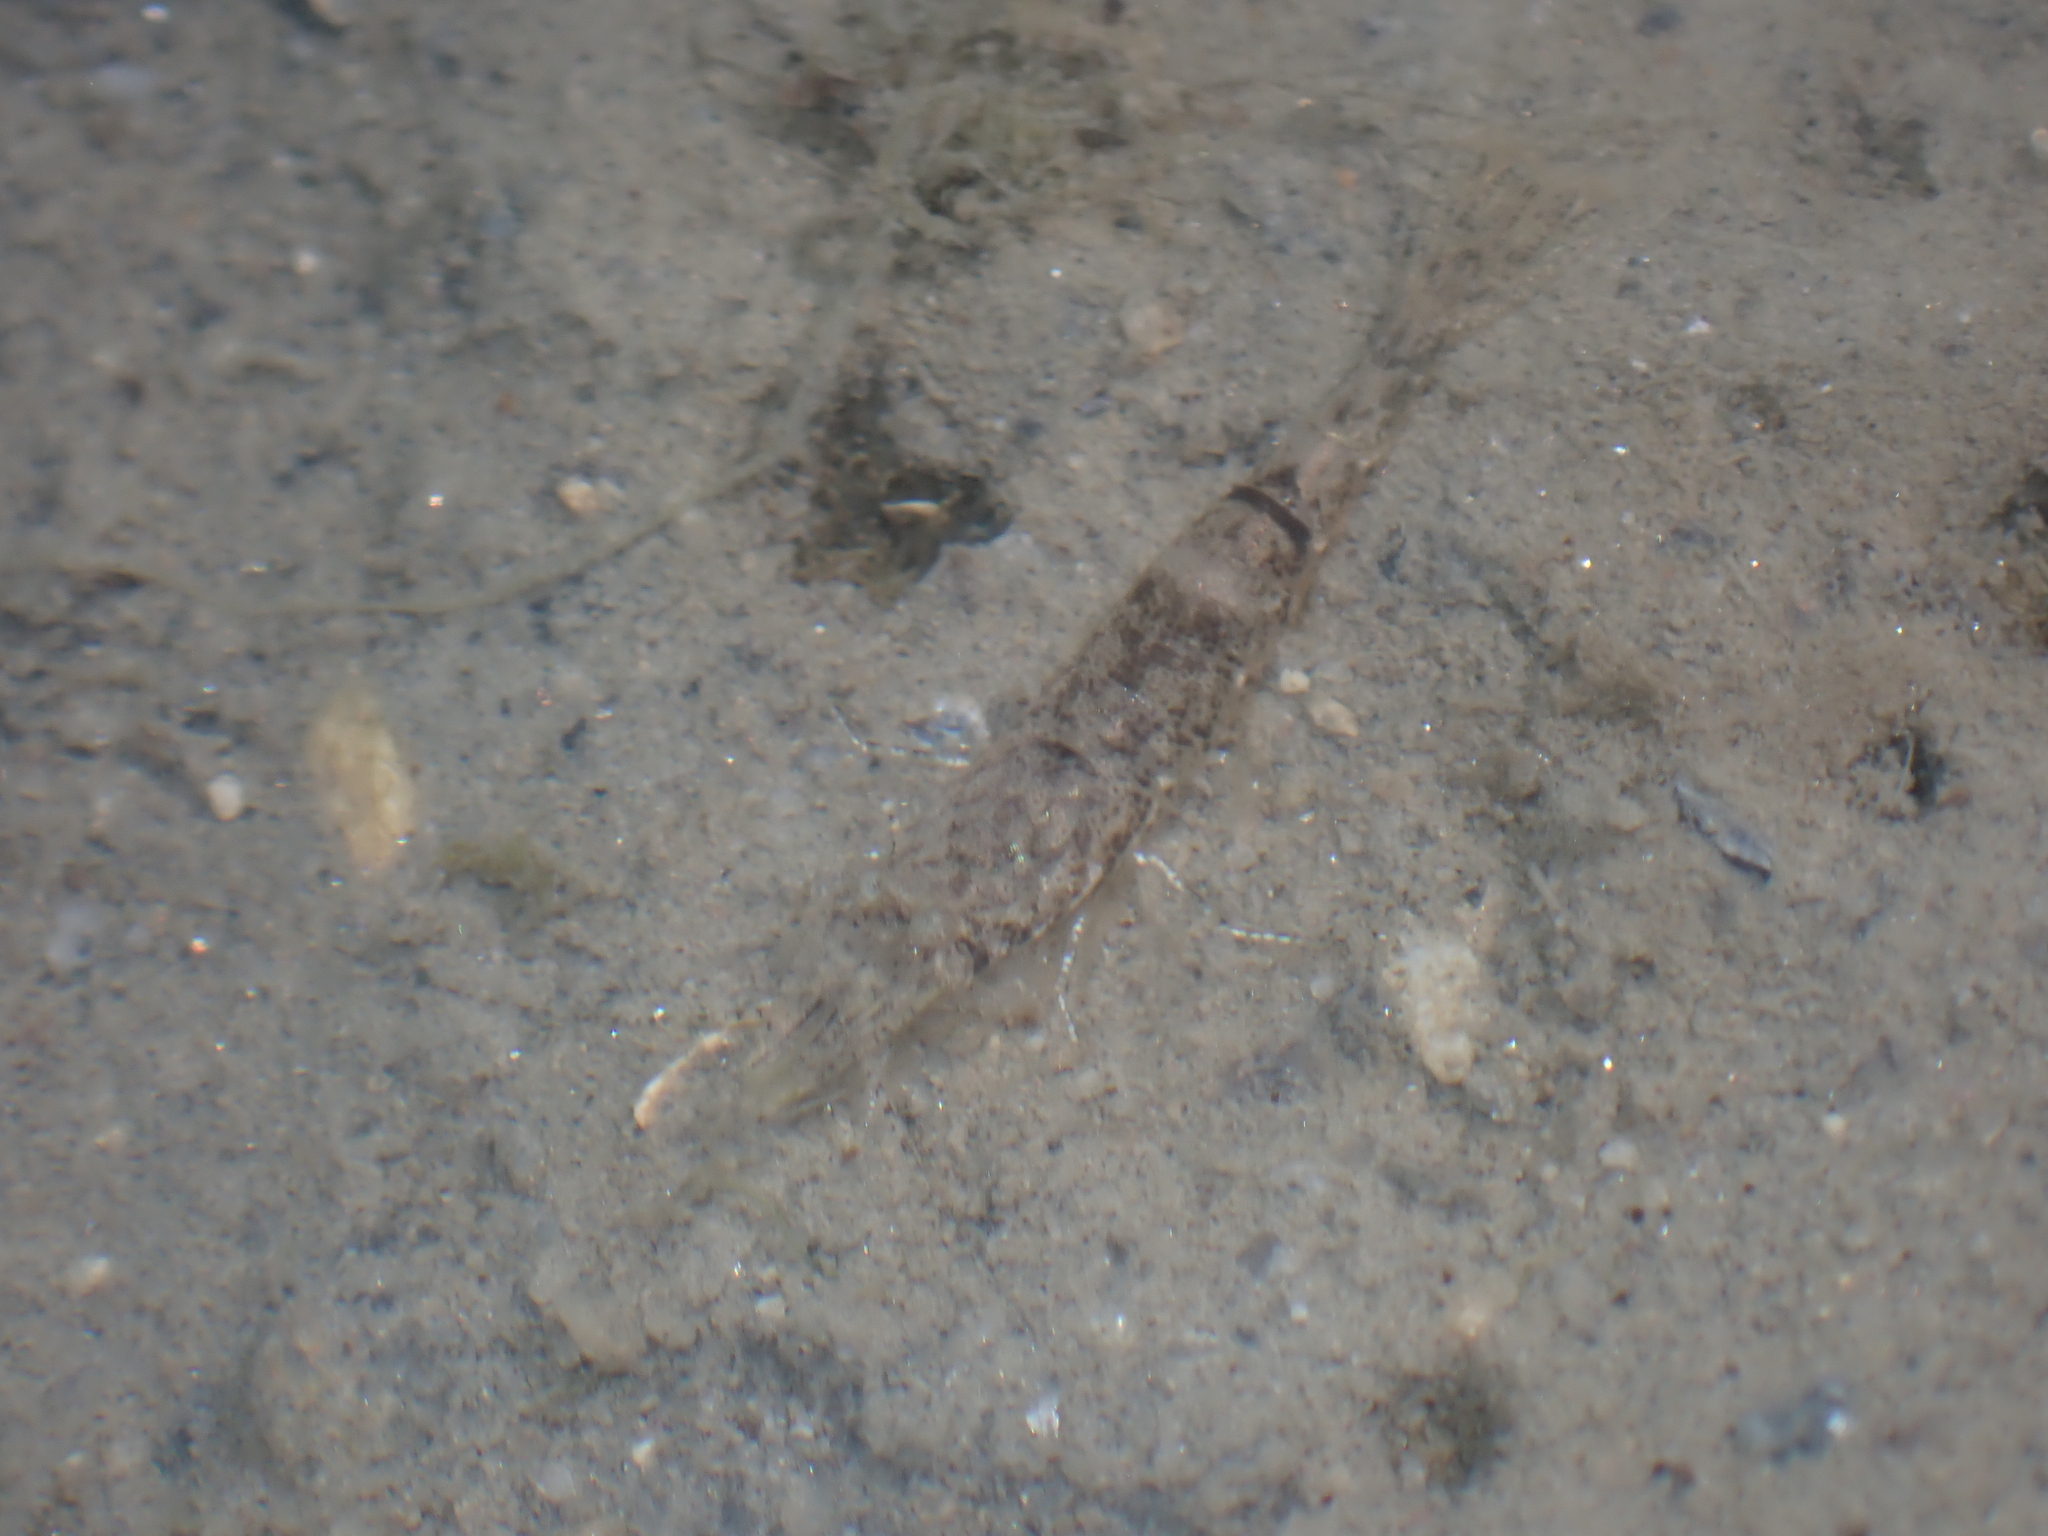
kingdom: Animalia
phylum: Arthropoda
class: Malacostraca
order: Decapoda
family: Crangonidae
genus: Crangon
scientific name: Crangon crangon
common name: Brown shrimp
